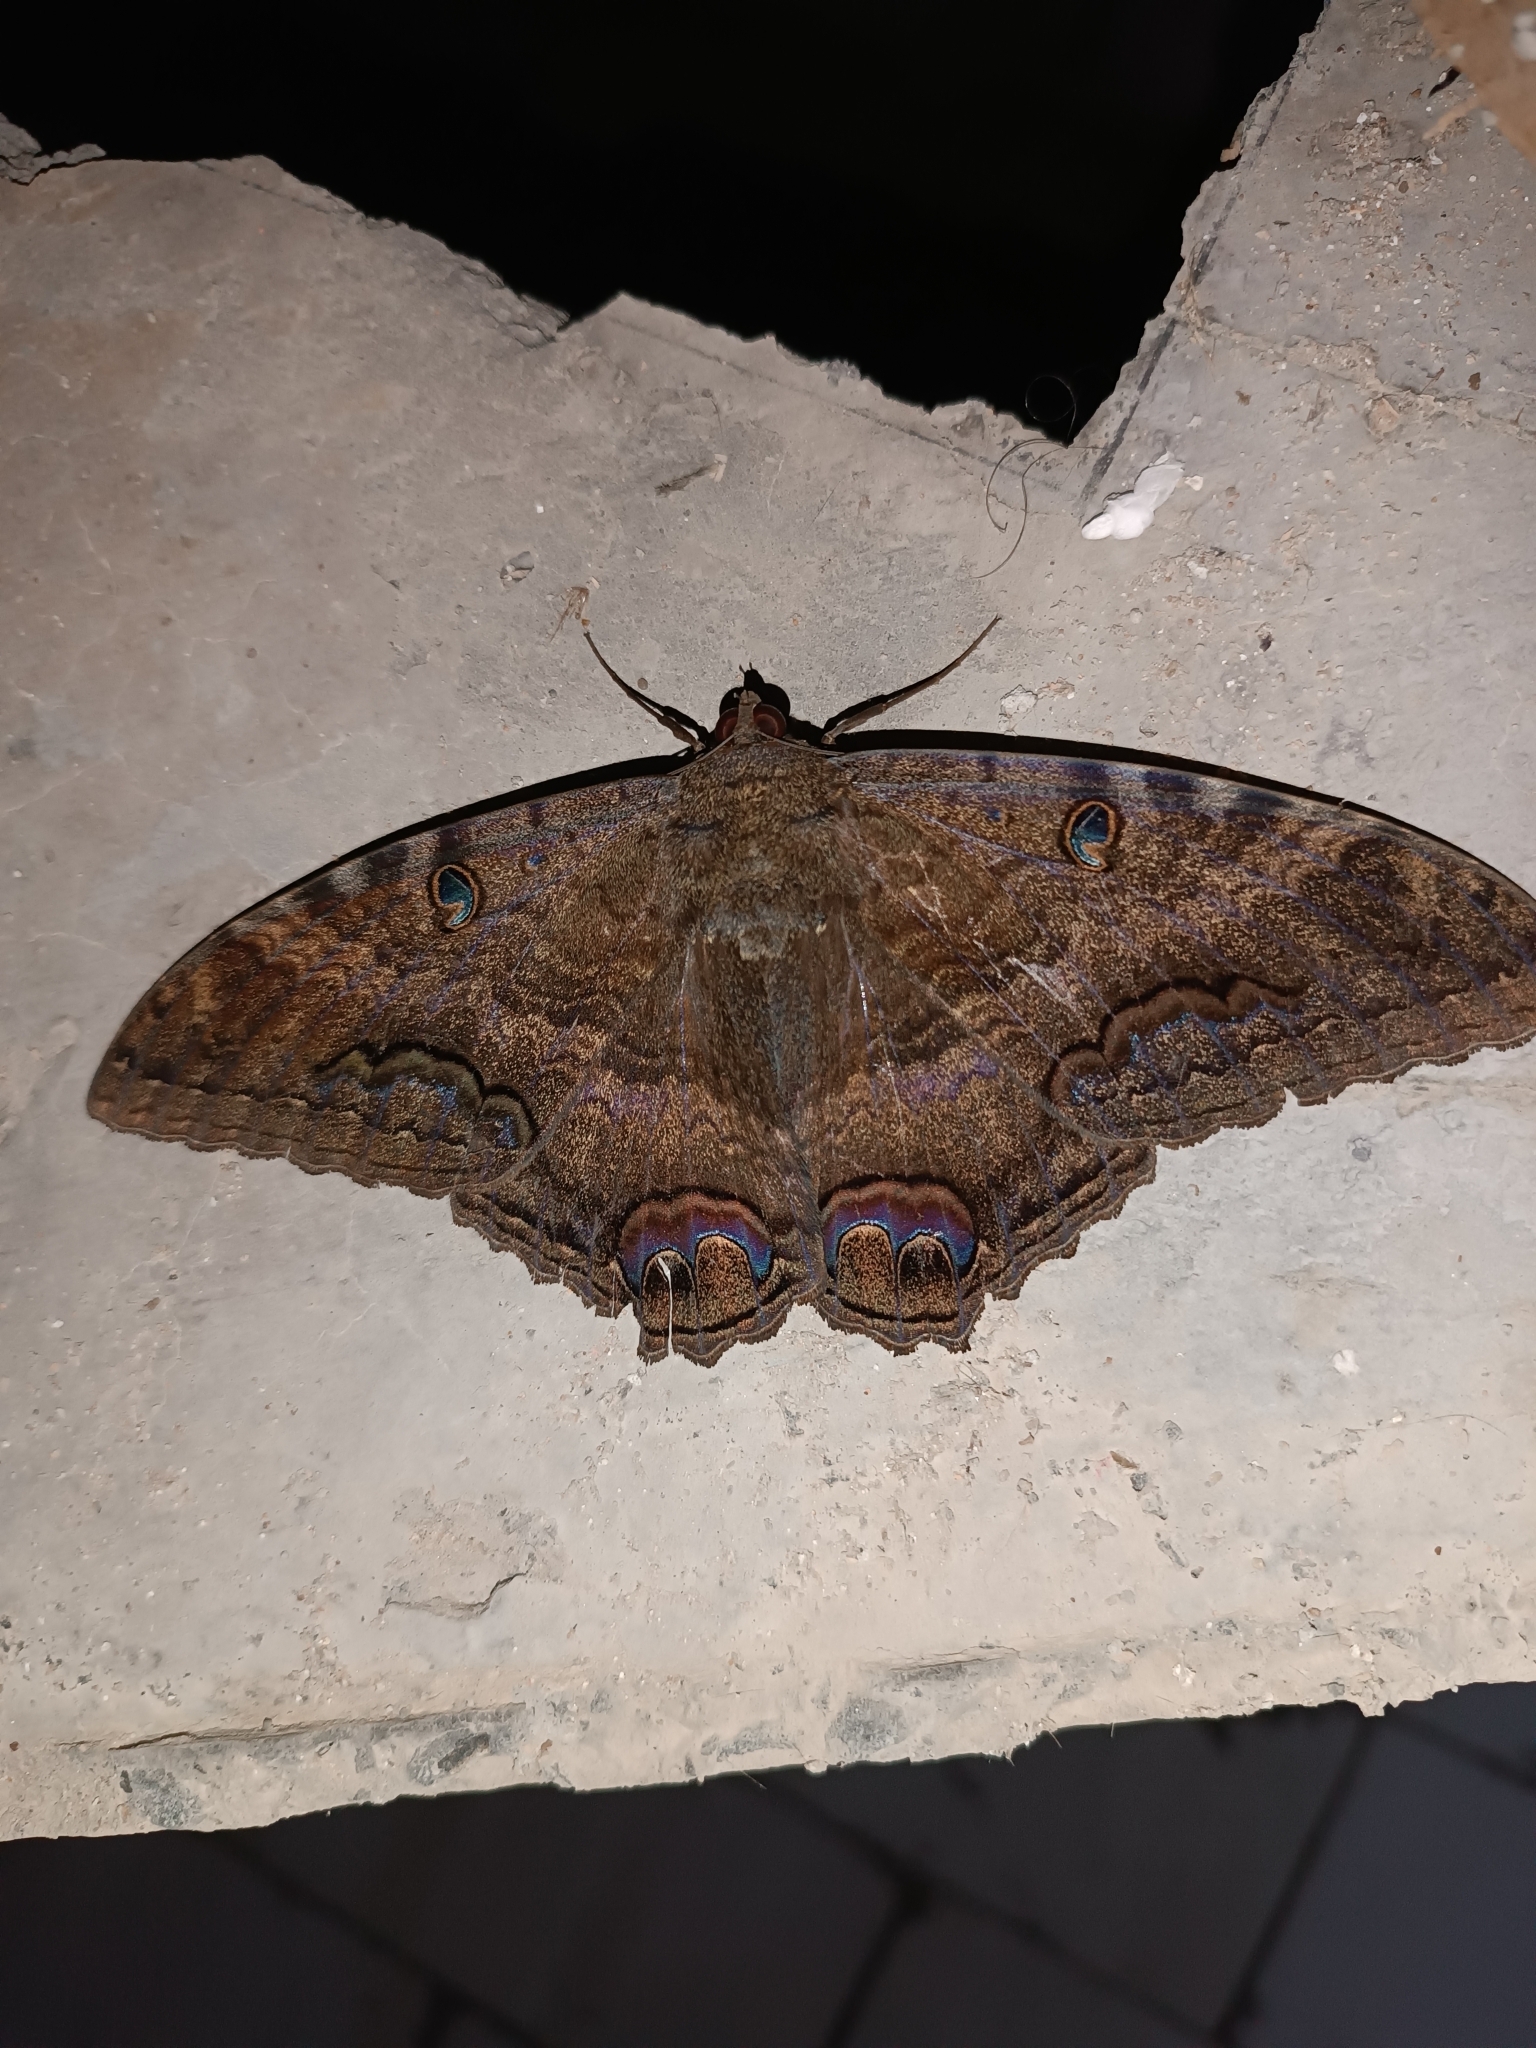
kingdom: Animalia
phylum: Arthropoda
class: Insecta
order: Lepidoptera
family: Erebidae
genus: Ascalapha
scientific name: Ascalapha odorata
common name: Black witch
